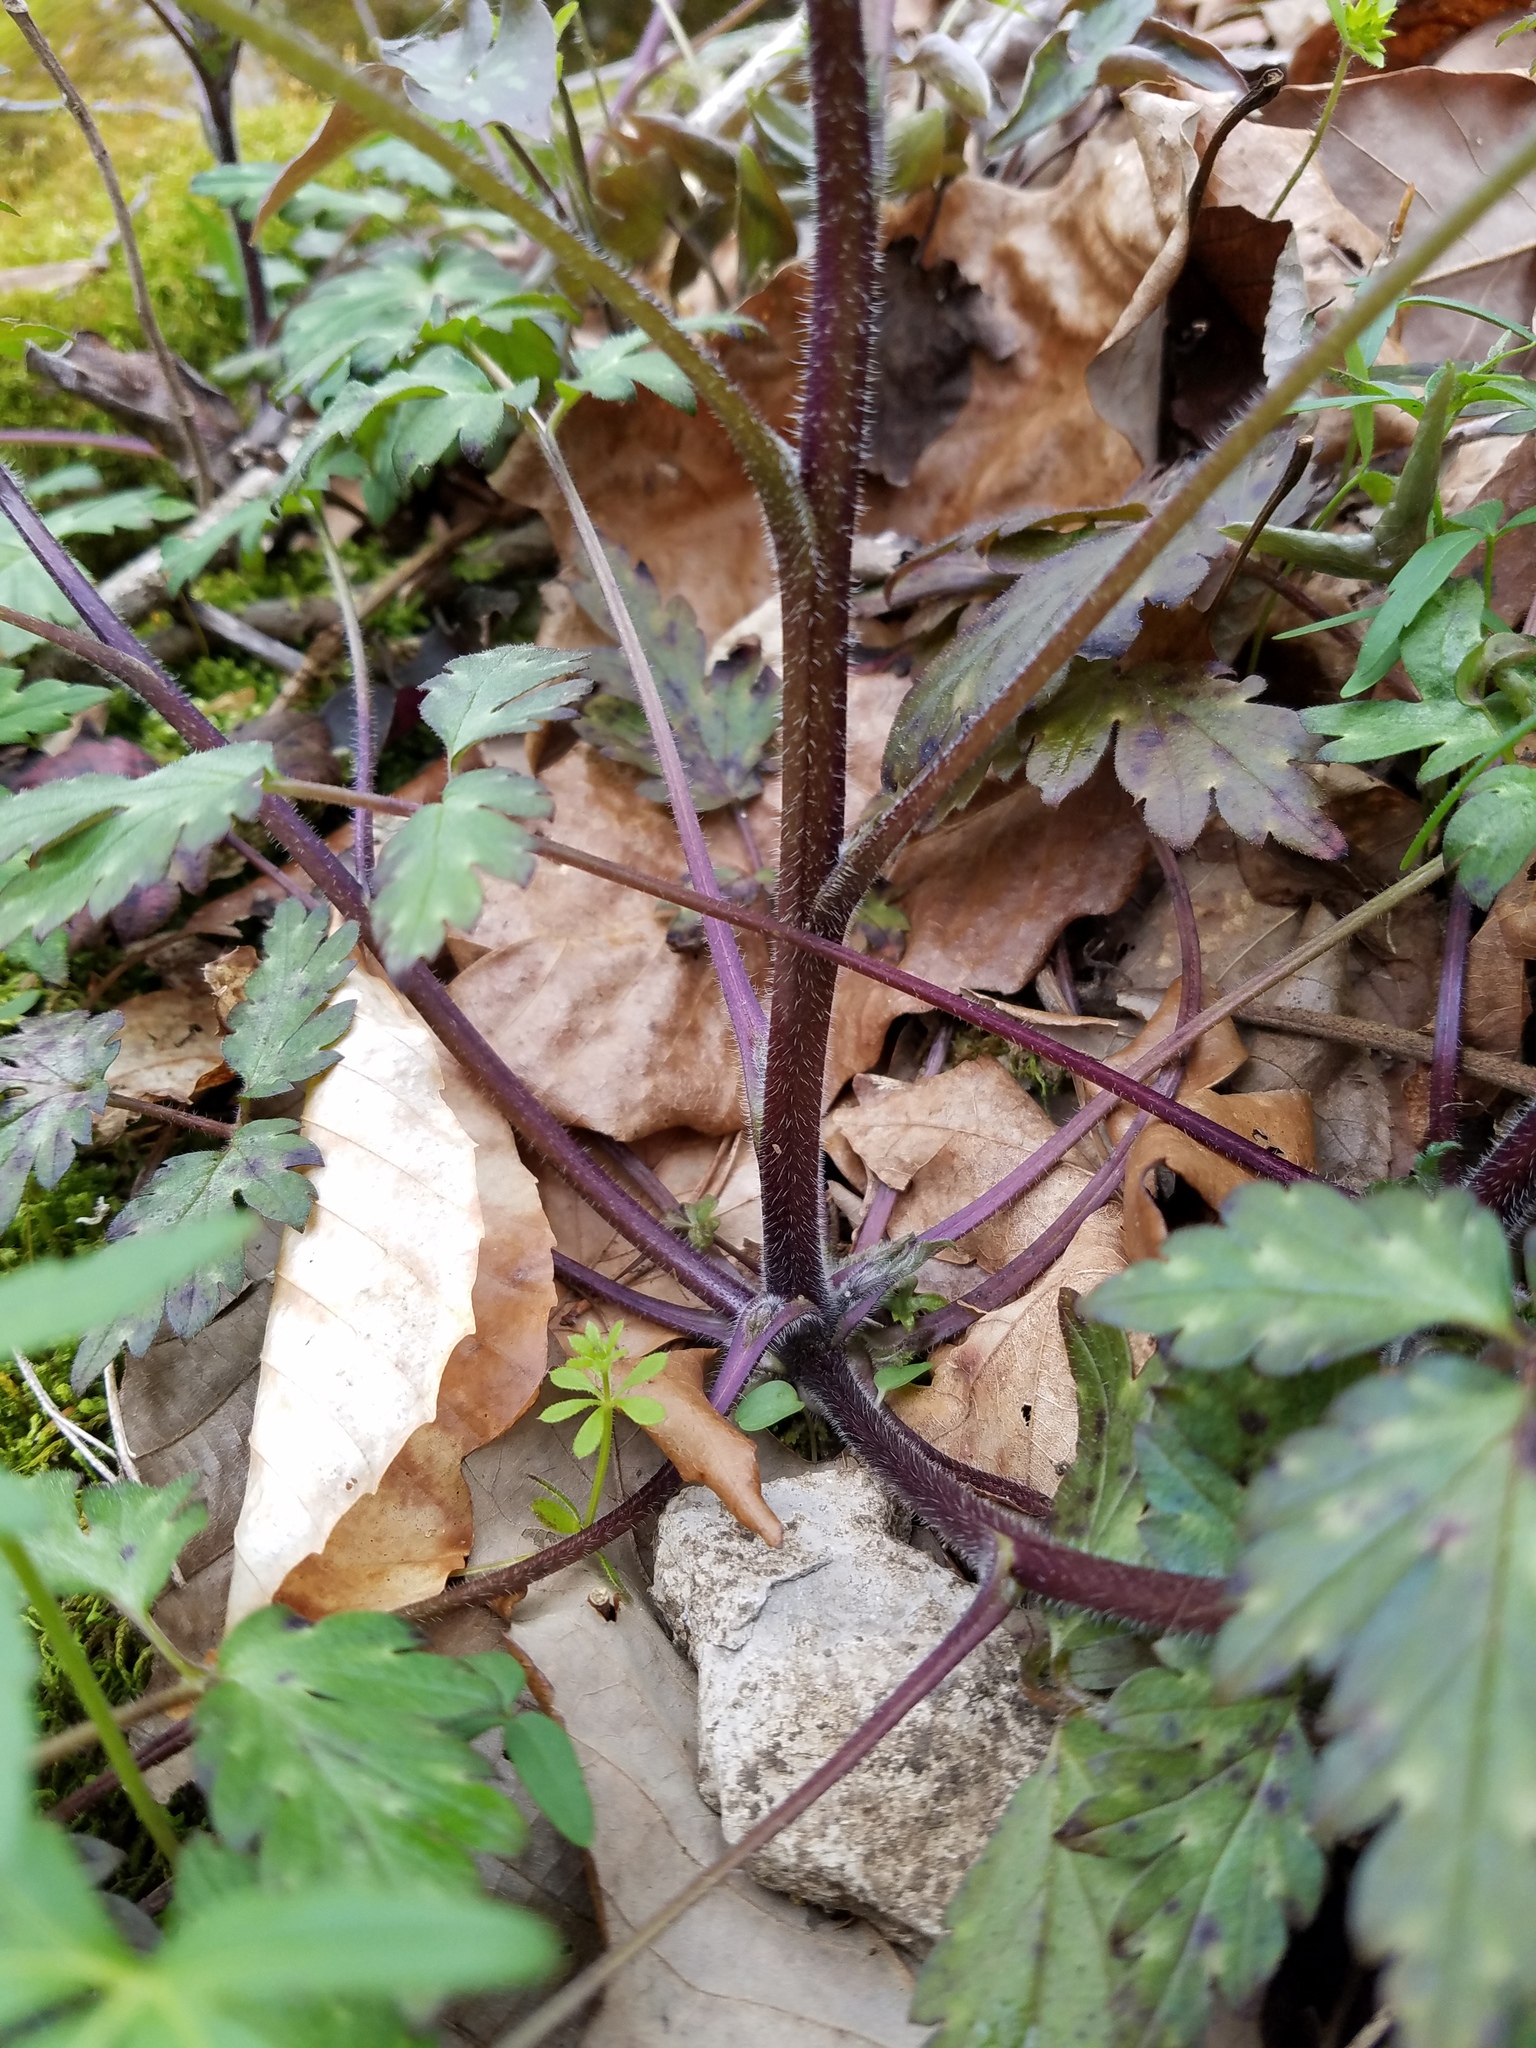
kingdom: Plantae
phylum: Tracheophyta
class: Magnoliopsida
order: Boraginales
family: Hydrophyllaceae
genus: Phacelia
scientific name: Phacelia bipinnatifida
